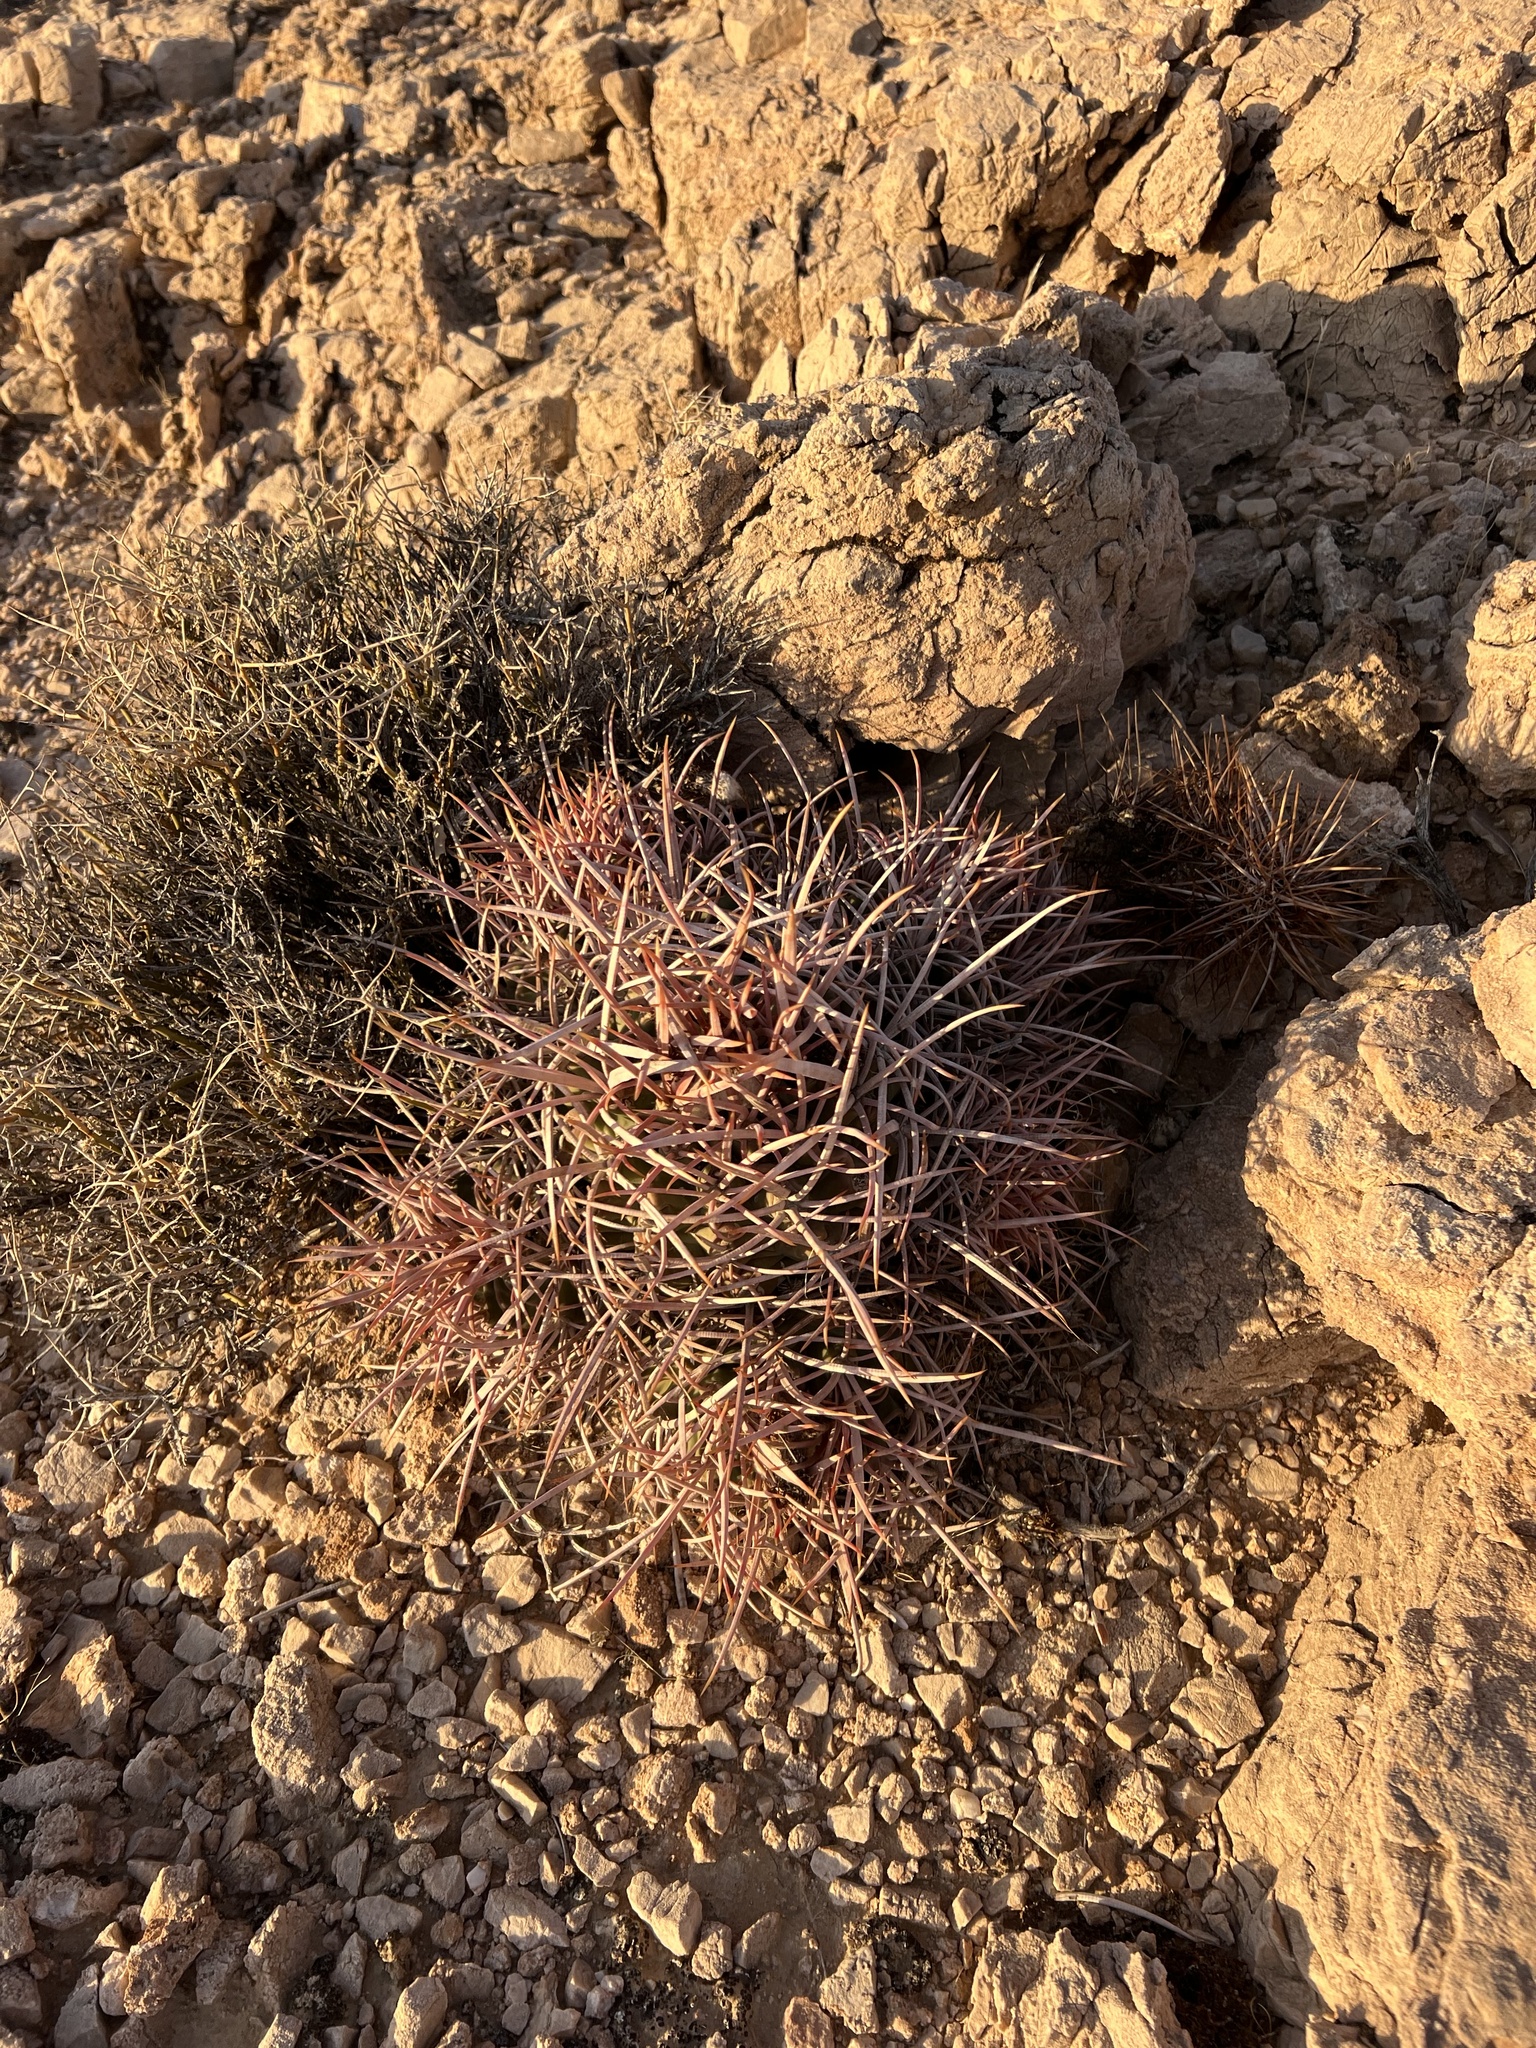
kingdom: Plantae
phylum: Tracheophyta
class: Magnoliopsida
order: Caryophyllales
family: Cactaceae
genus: Echinocactus
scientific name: Echinocactus polycephalus
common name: Cottontop cactus
